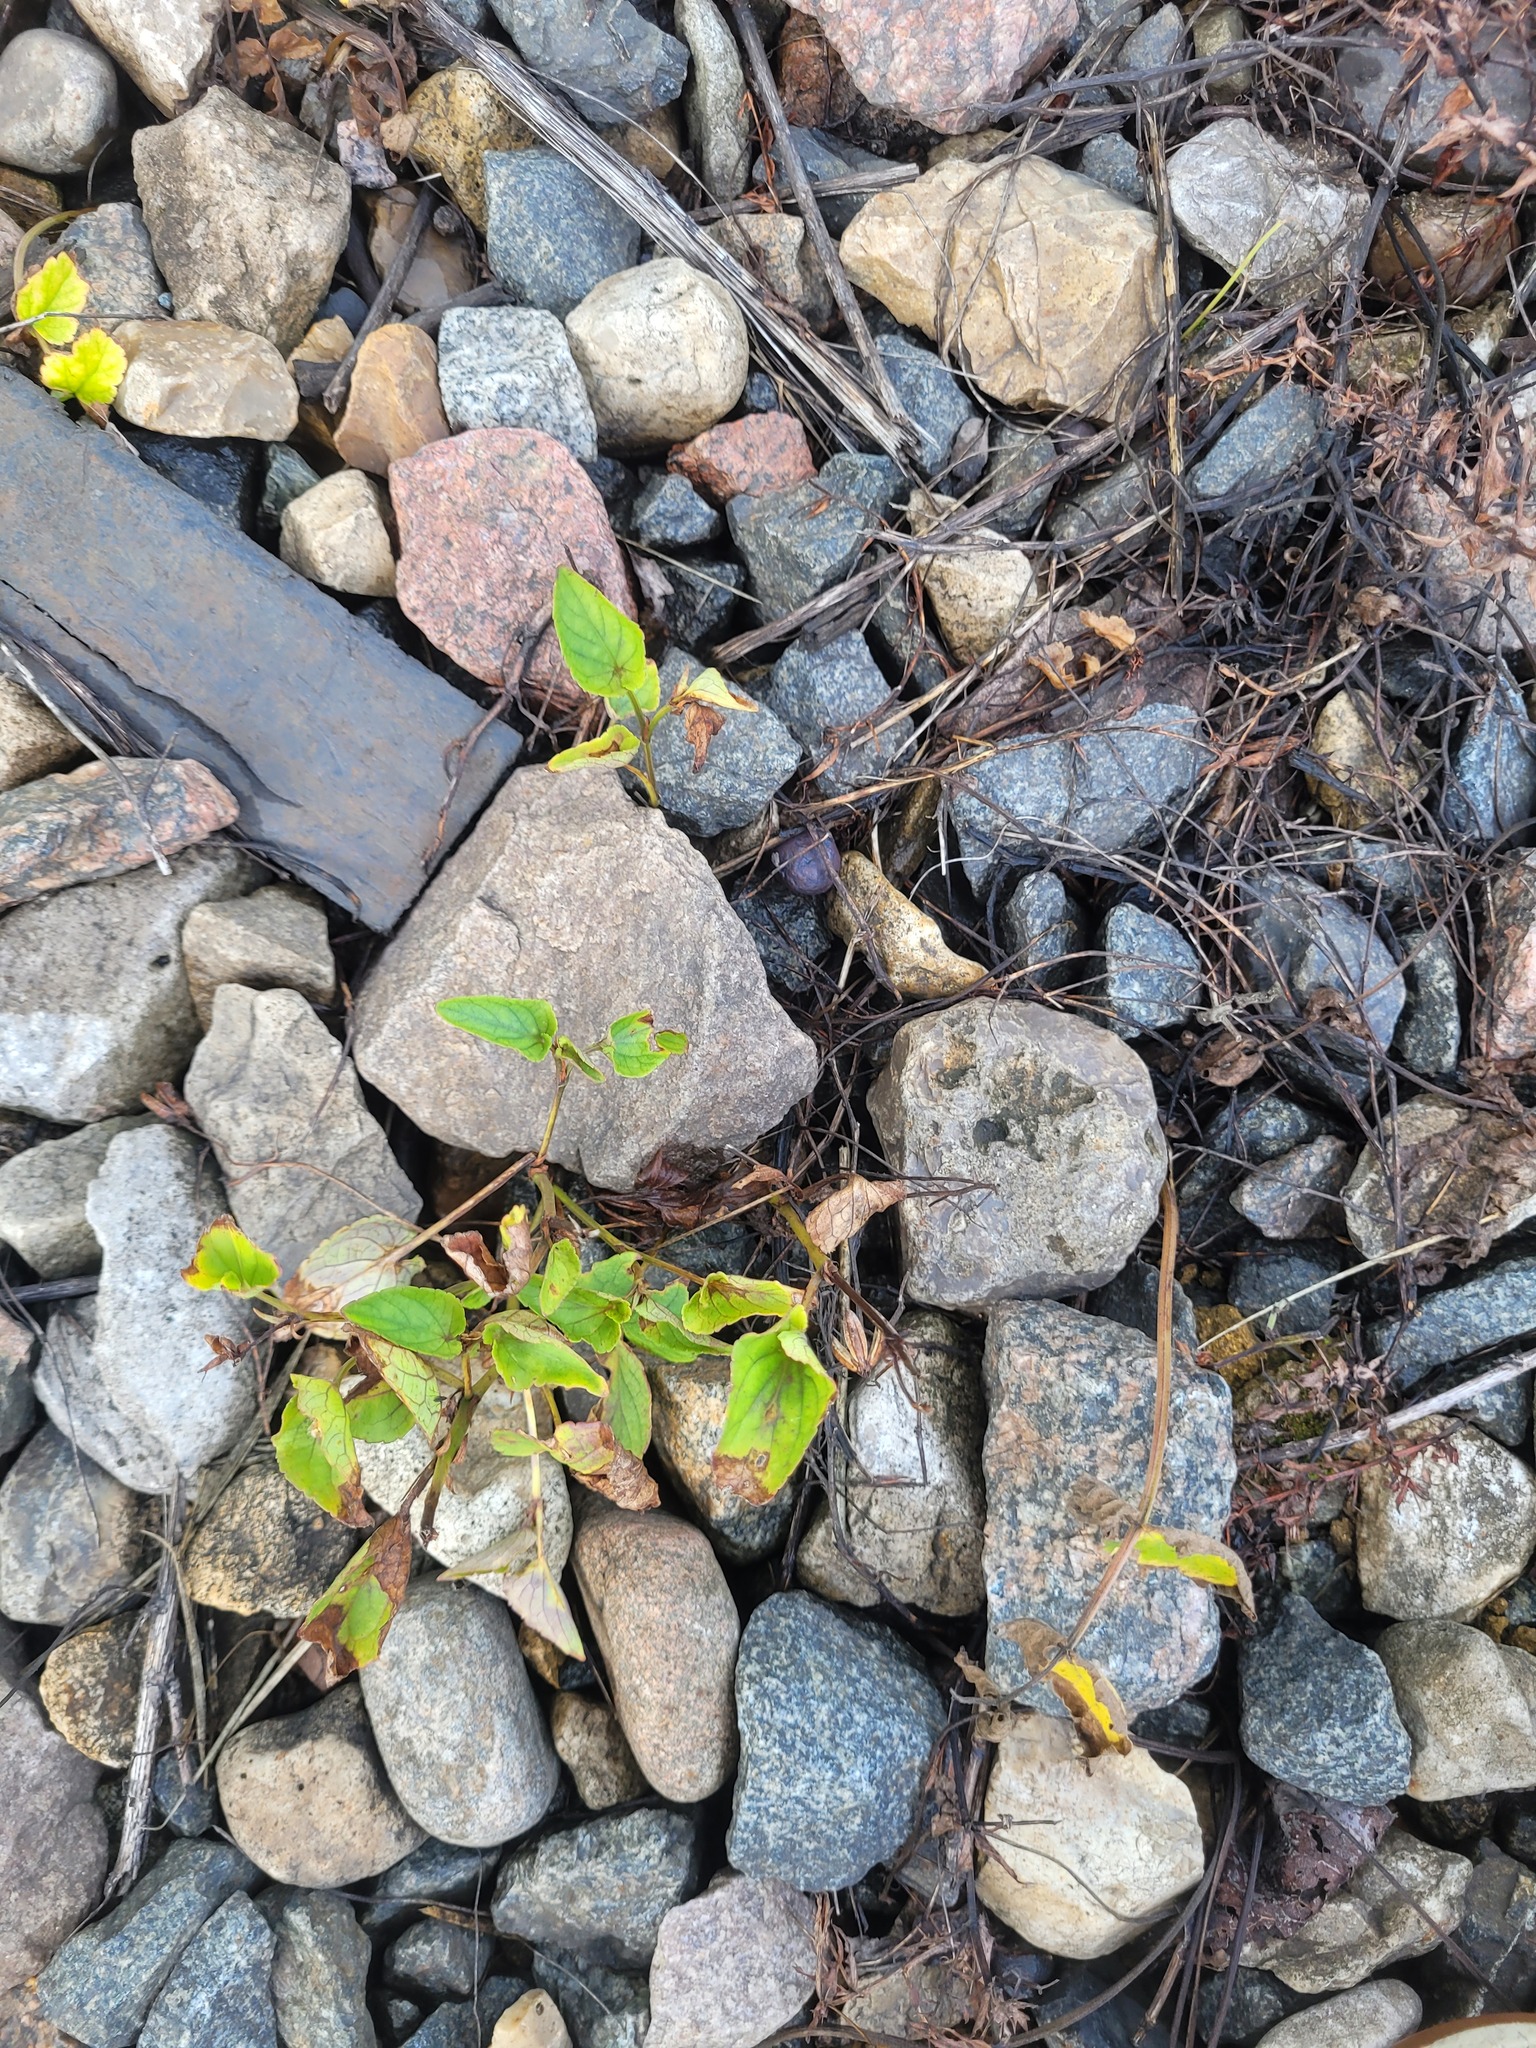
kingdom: Plantae
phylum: Tracheophyta
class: Magnoliopsida
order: Malpighiales
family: Violaceae
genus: Viola
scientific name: Viola
